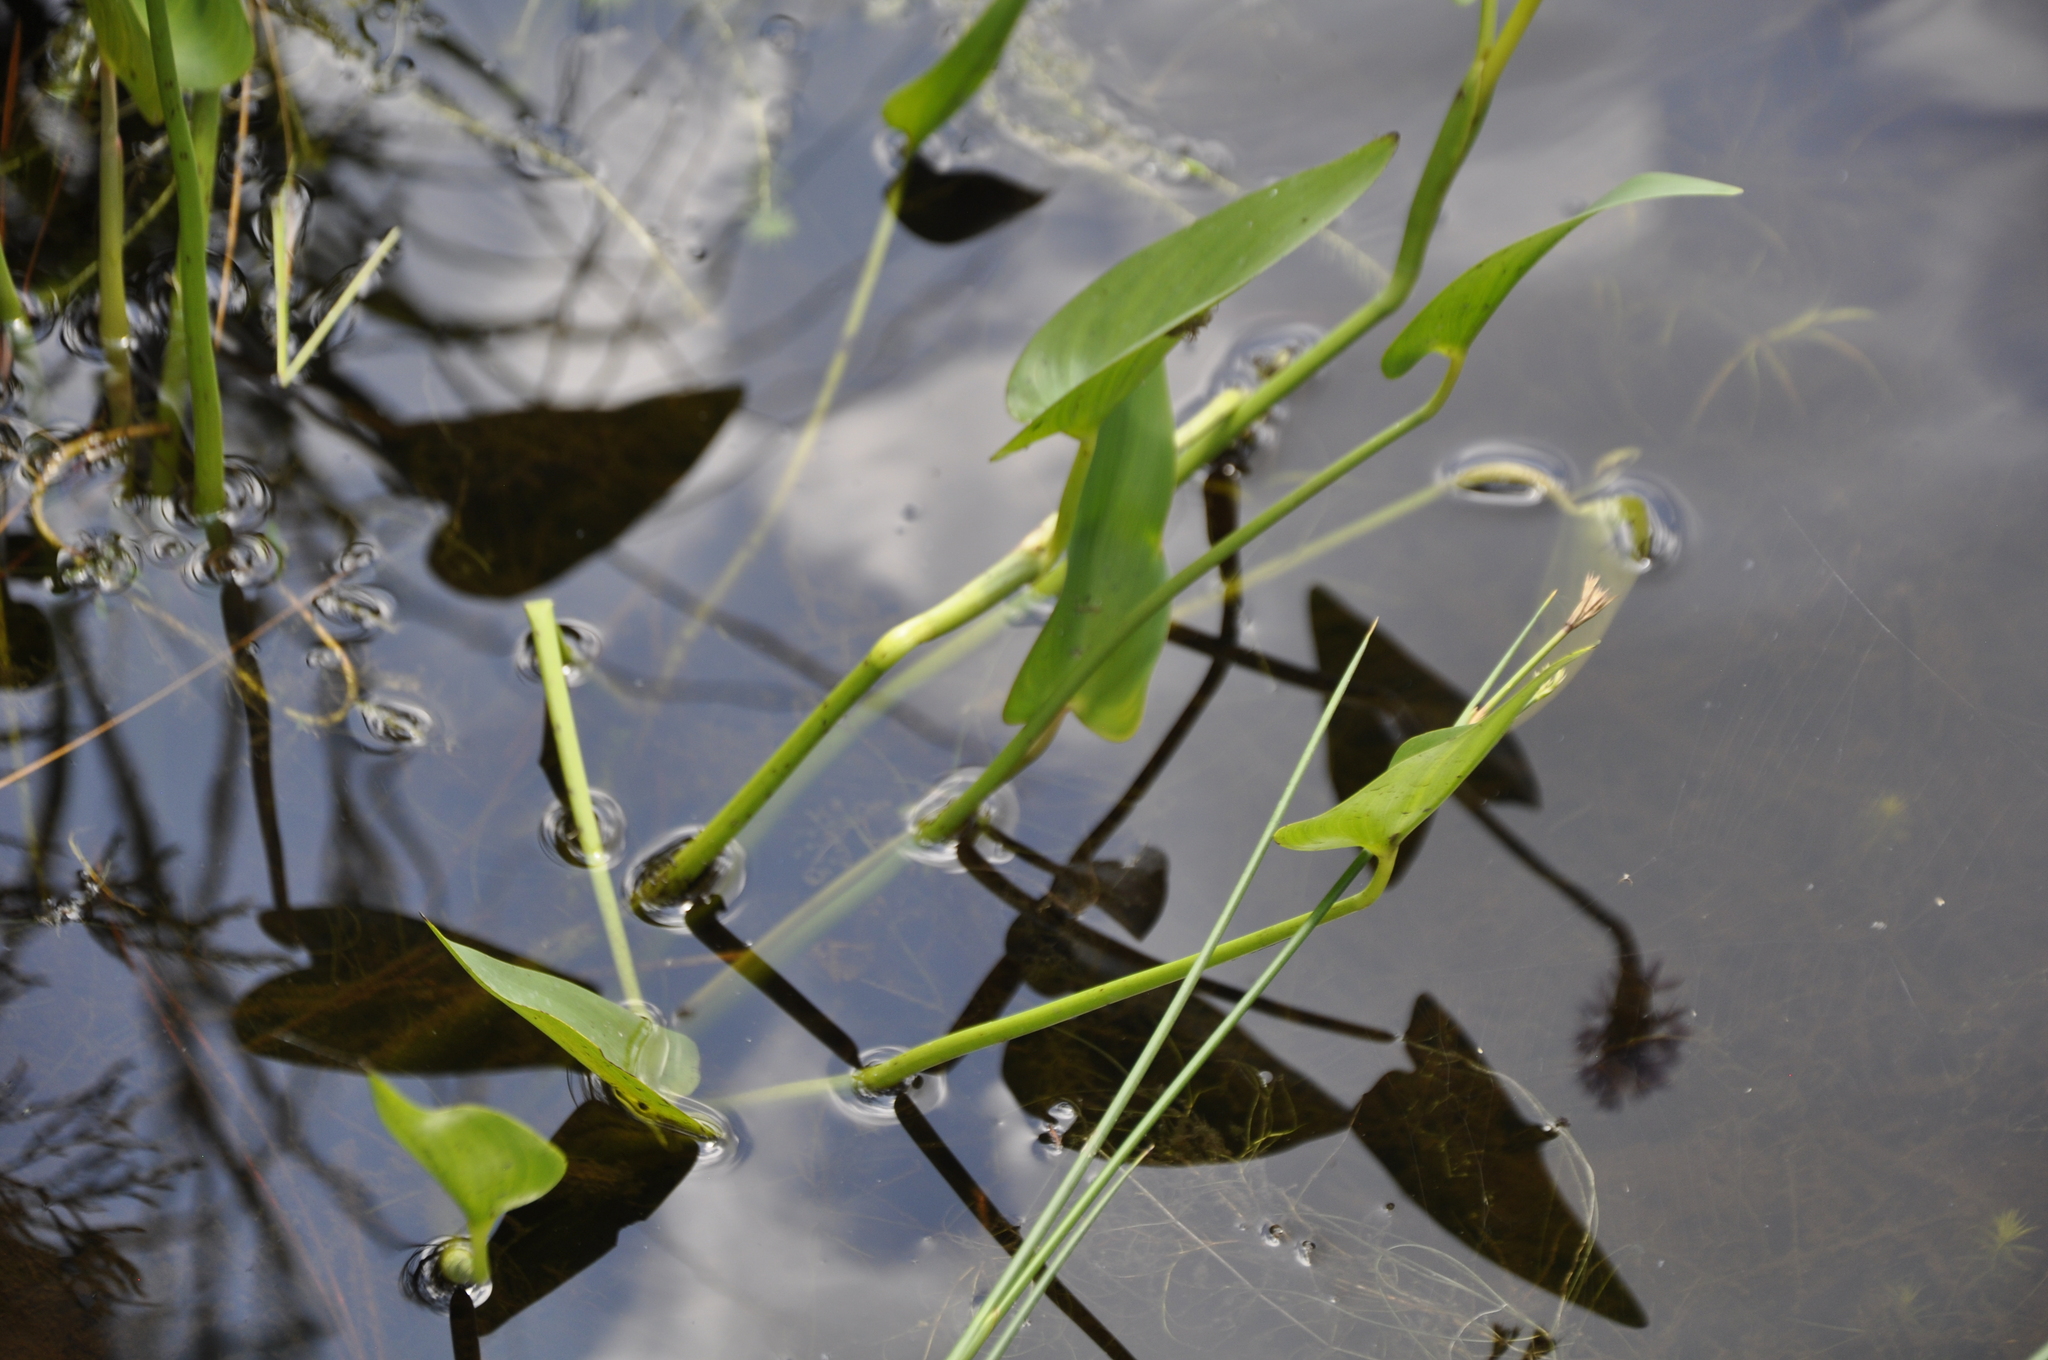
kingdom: Plantae
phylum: Tracheophyta
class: Liliopsida
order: Commelinales
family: Pontederiaceae
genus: Pontederia
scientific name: Pontederia cordata
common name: Pickerelweed
